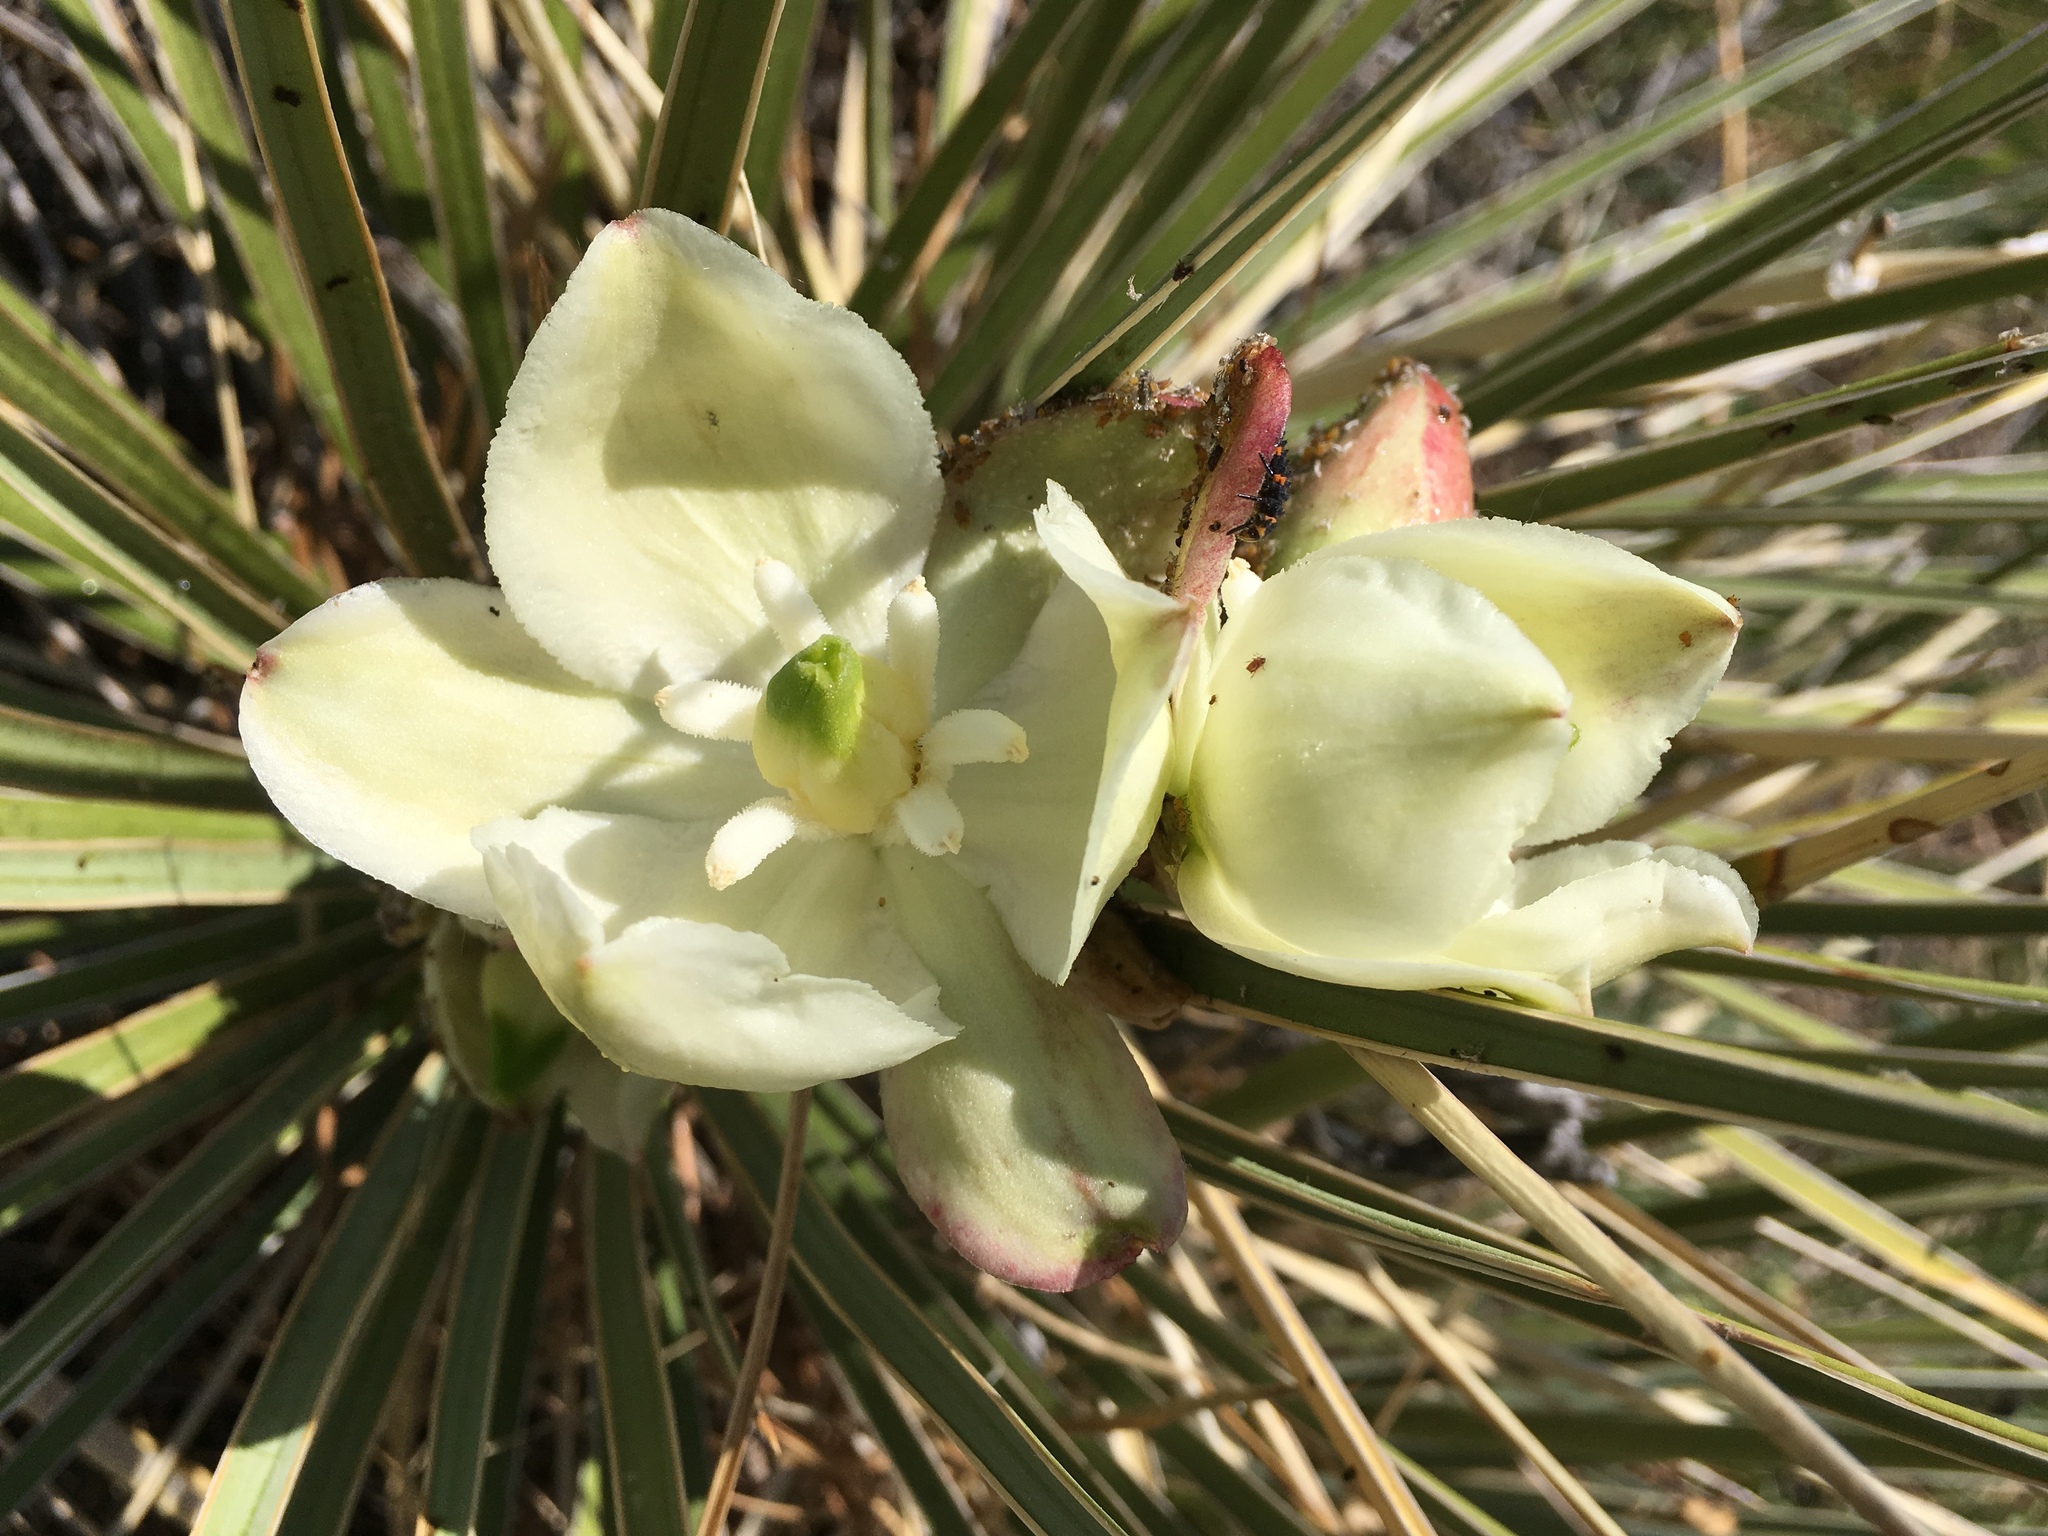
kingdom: Plantae
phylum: Tracheophyta
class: Liliopsida
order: Asparagales
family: Asparagaceae
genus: Yucca
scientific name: Yucca glauca
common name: Great plains yucca
